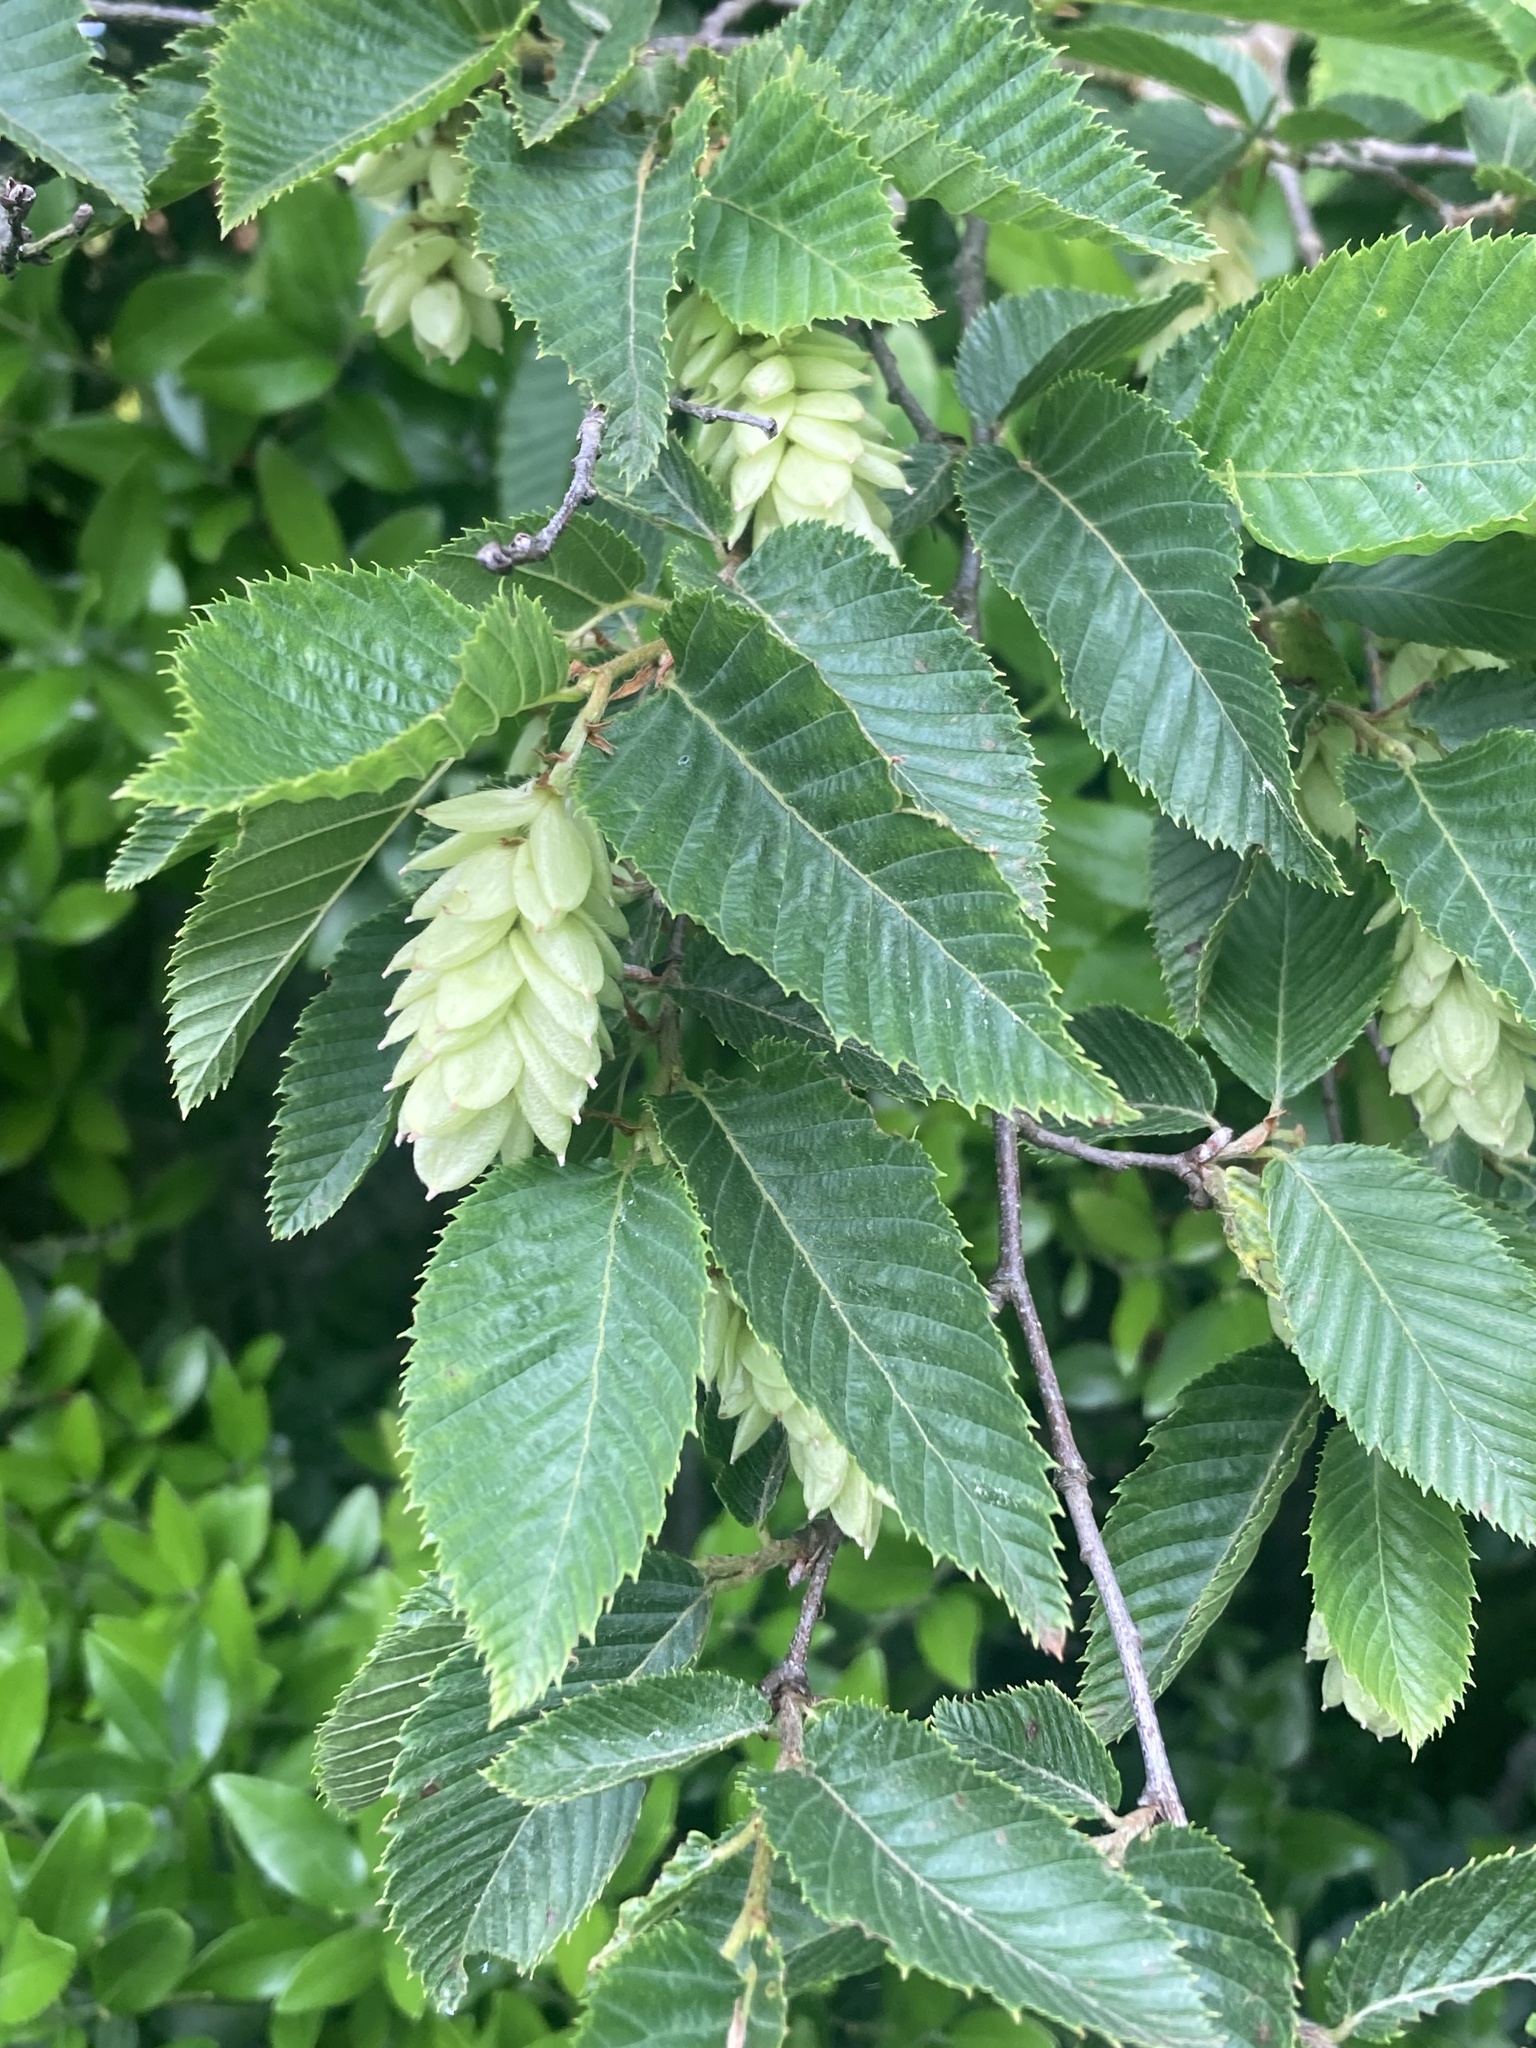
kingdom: Plantae
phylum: Tracheophyta
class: Magnoliopsida
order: Fagales
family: Betulaceae
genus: Ostrya
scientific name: Ostrya carpinifolia
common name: European hop-hornbeam
